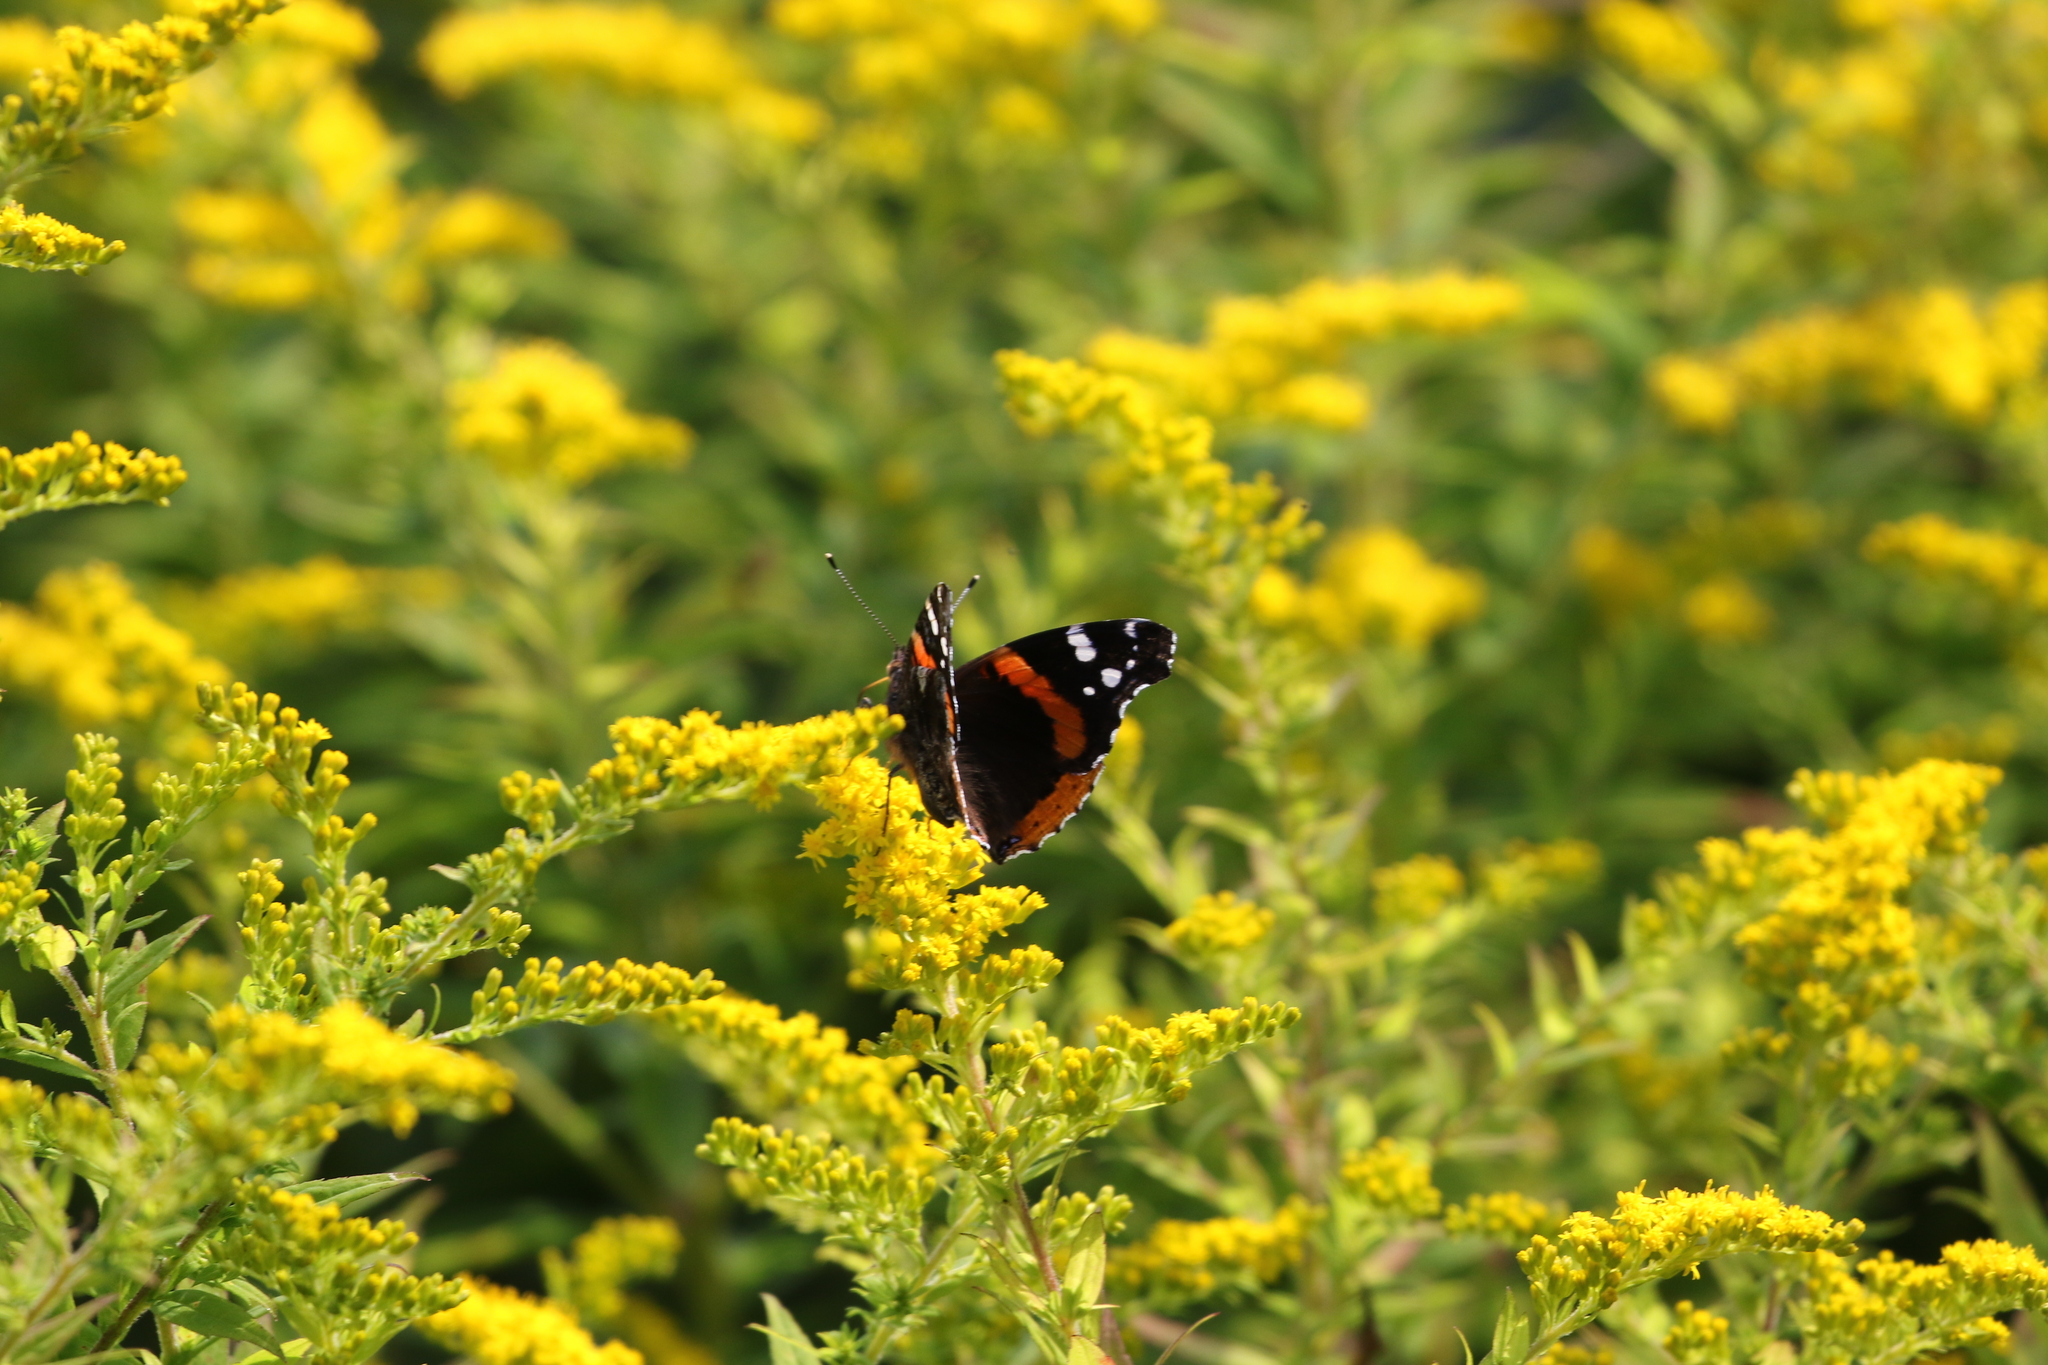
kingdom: Animalia
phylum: Arthropoda
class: Insecta
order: Lepidoptera
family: Nymphalidae
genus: Vanessa
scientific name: Vanessa atalanta
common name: Red admiral
